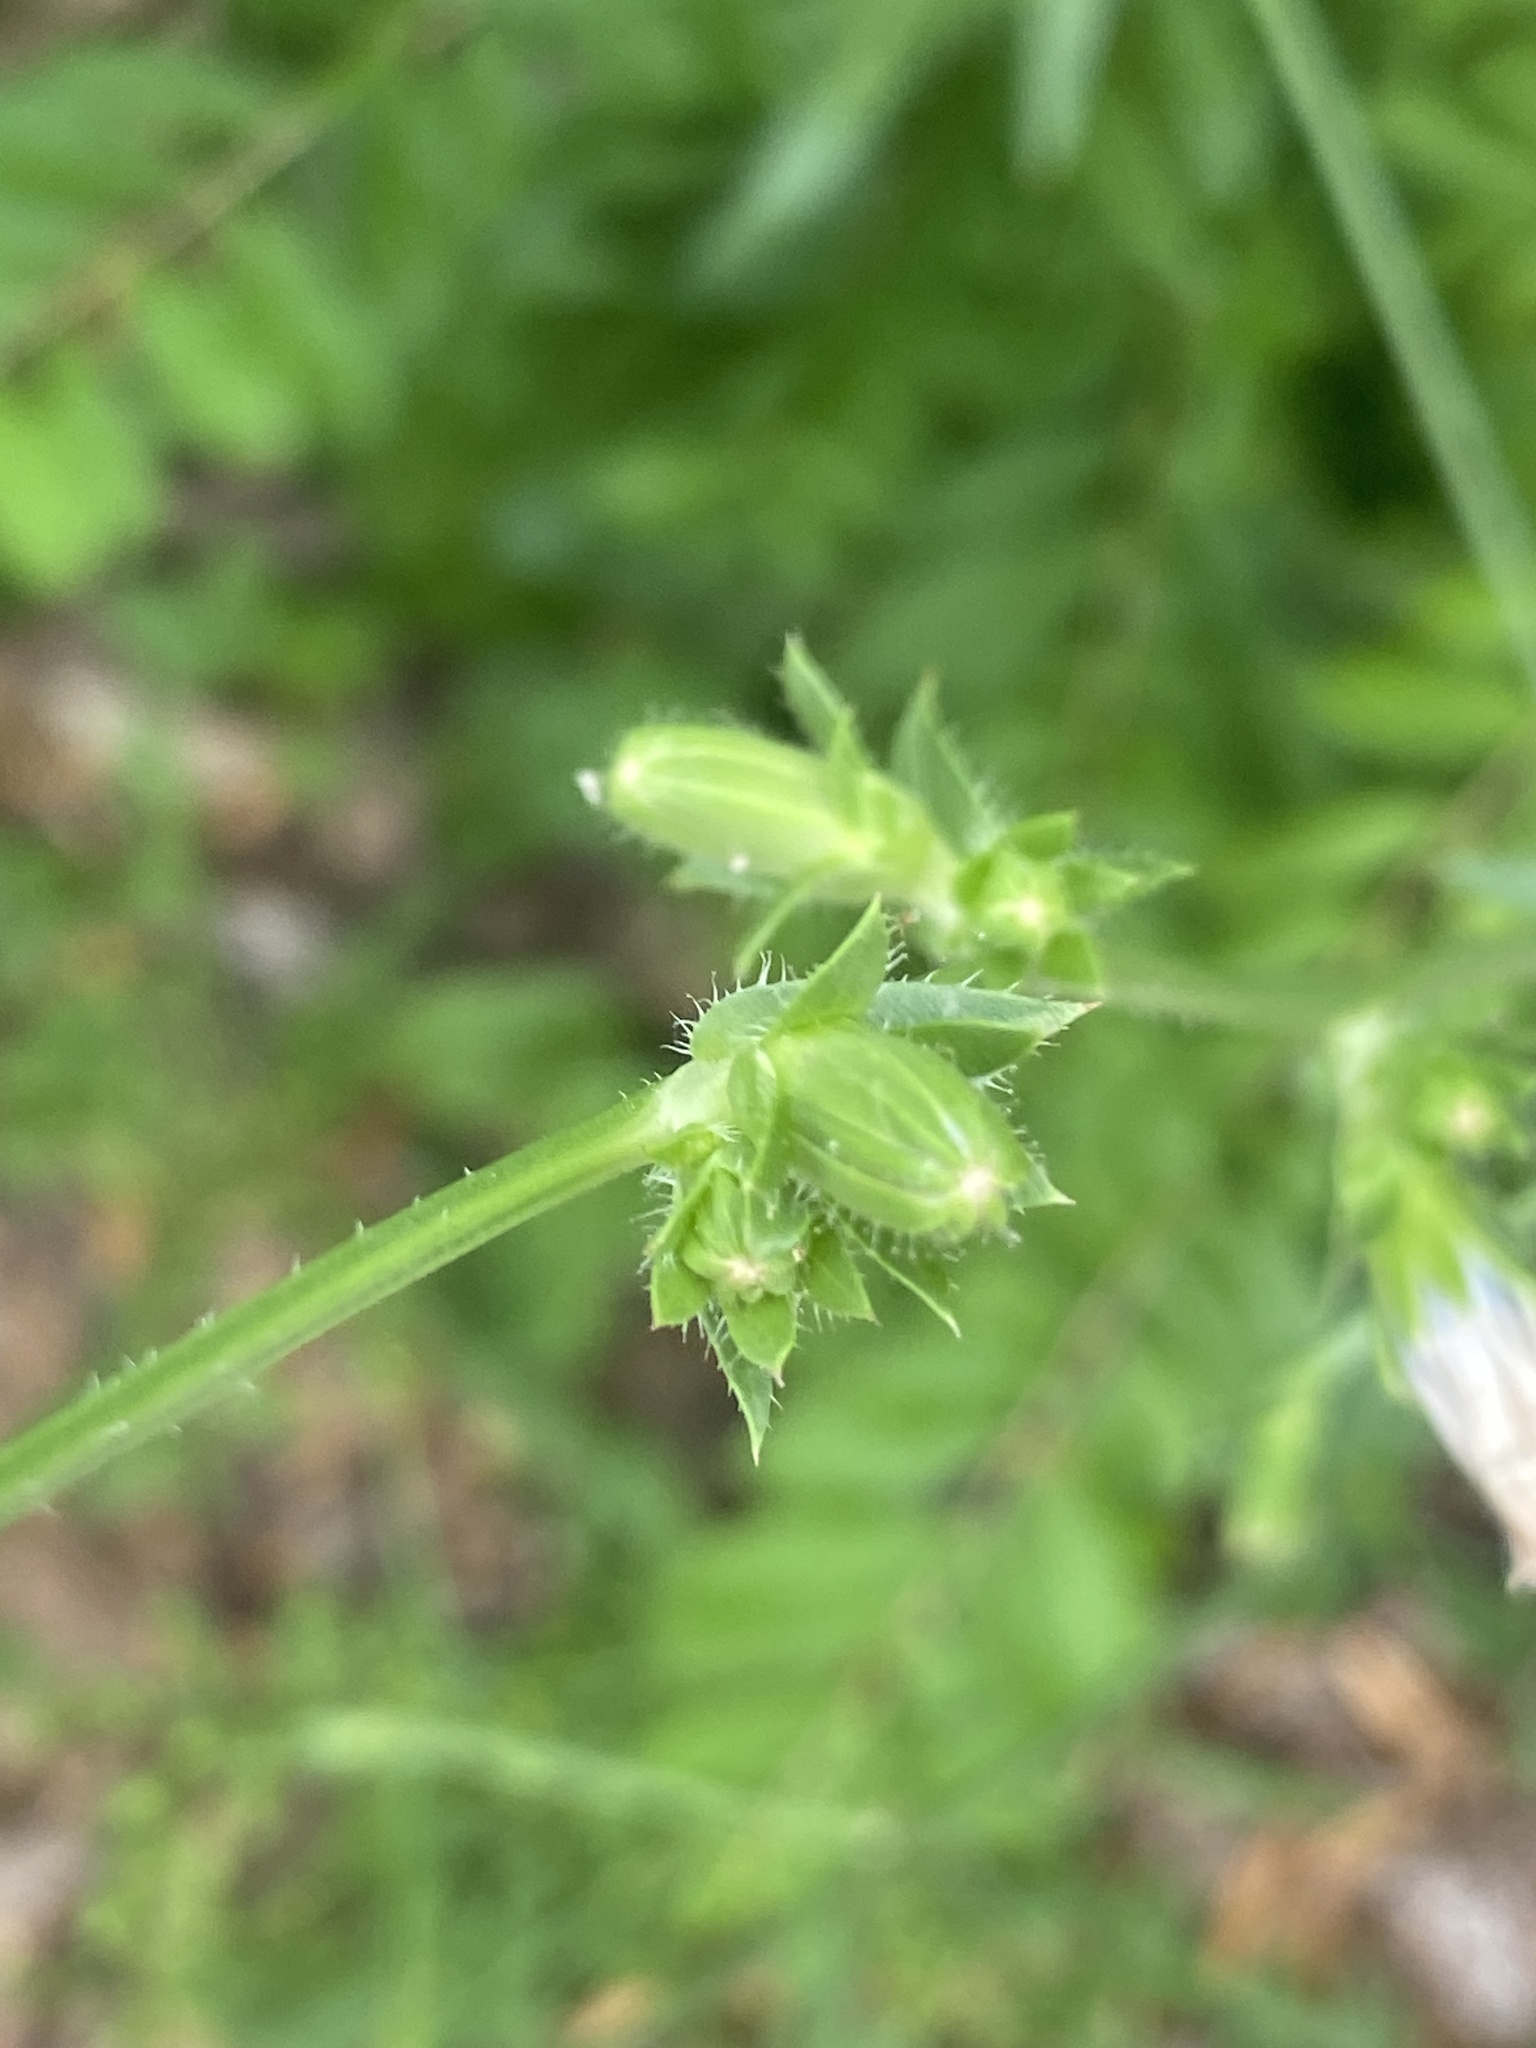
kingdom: Plantae
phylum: Tracheophyta
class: Magnoliopsida
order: Asterales
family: Asteraceae
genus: Cichorium
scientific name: Cichorium intybus
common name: Chicory
